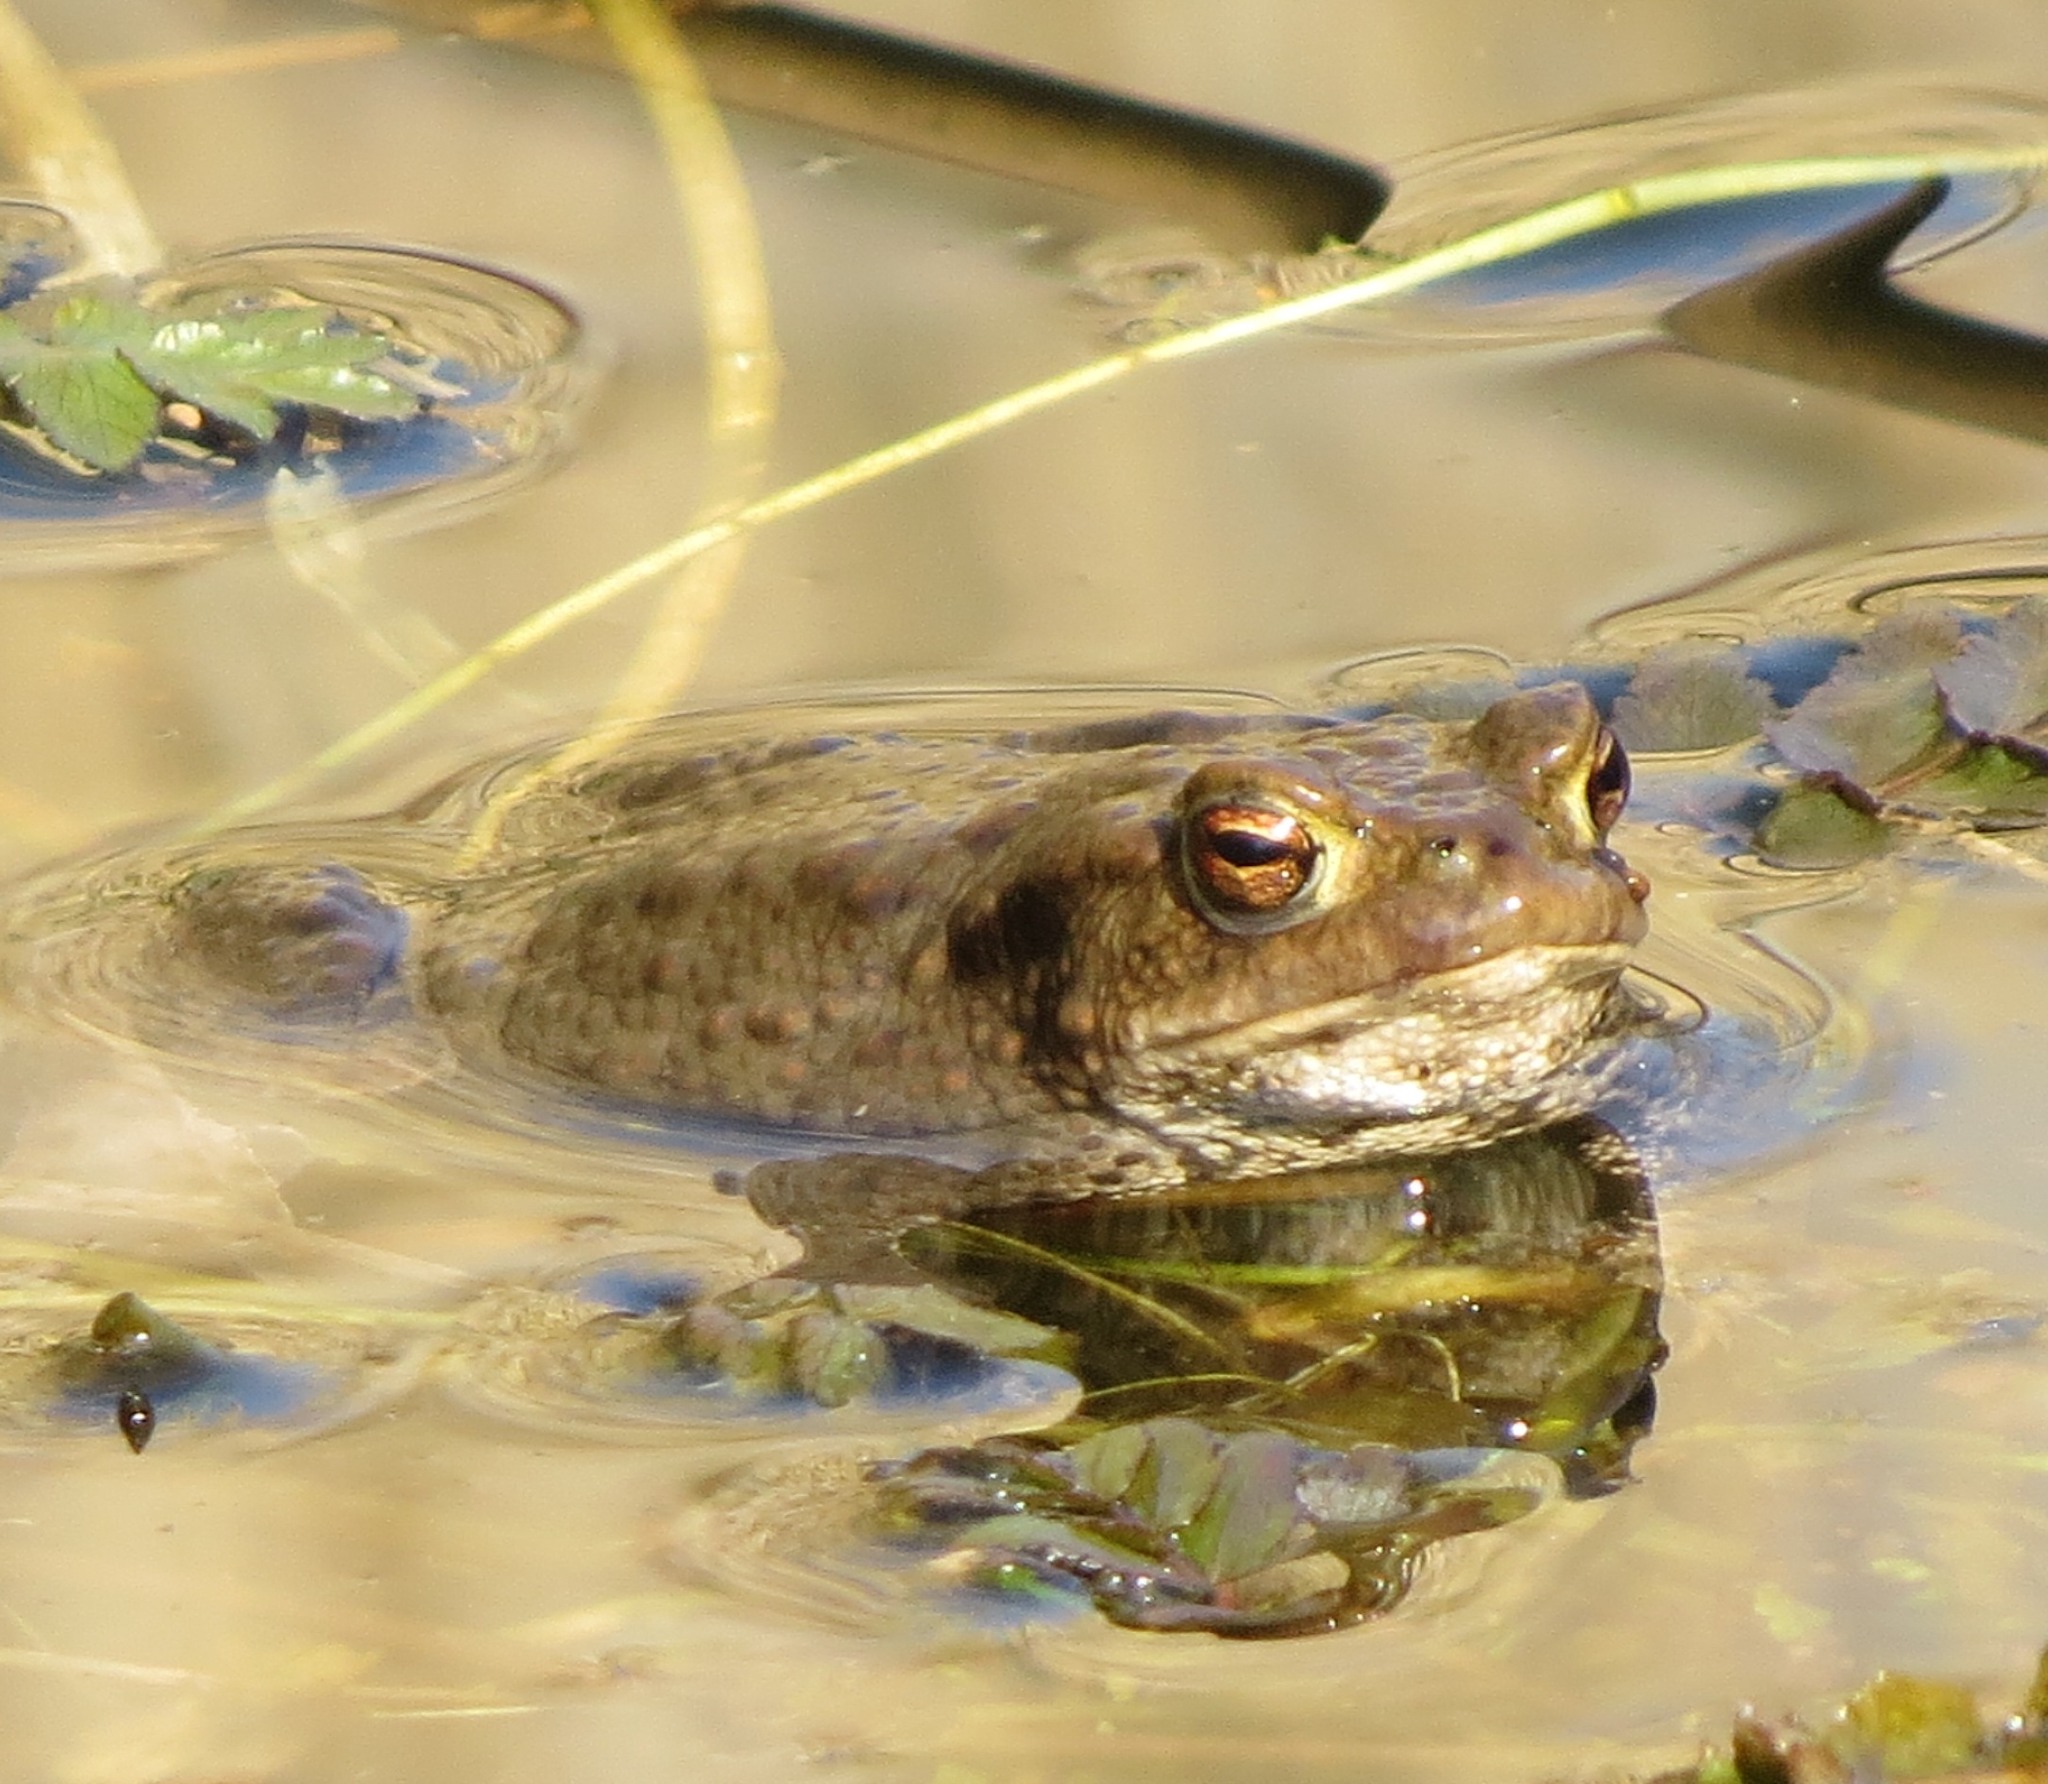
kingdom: Animalia
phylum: Chordata
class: Amphibia
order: Anura
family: Bufonidae
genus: Bufo
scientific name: Bufo bufo
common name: Common toad
